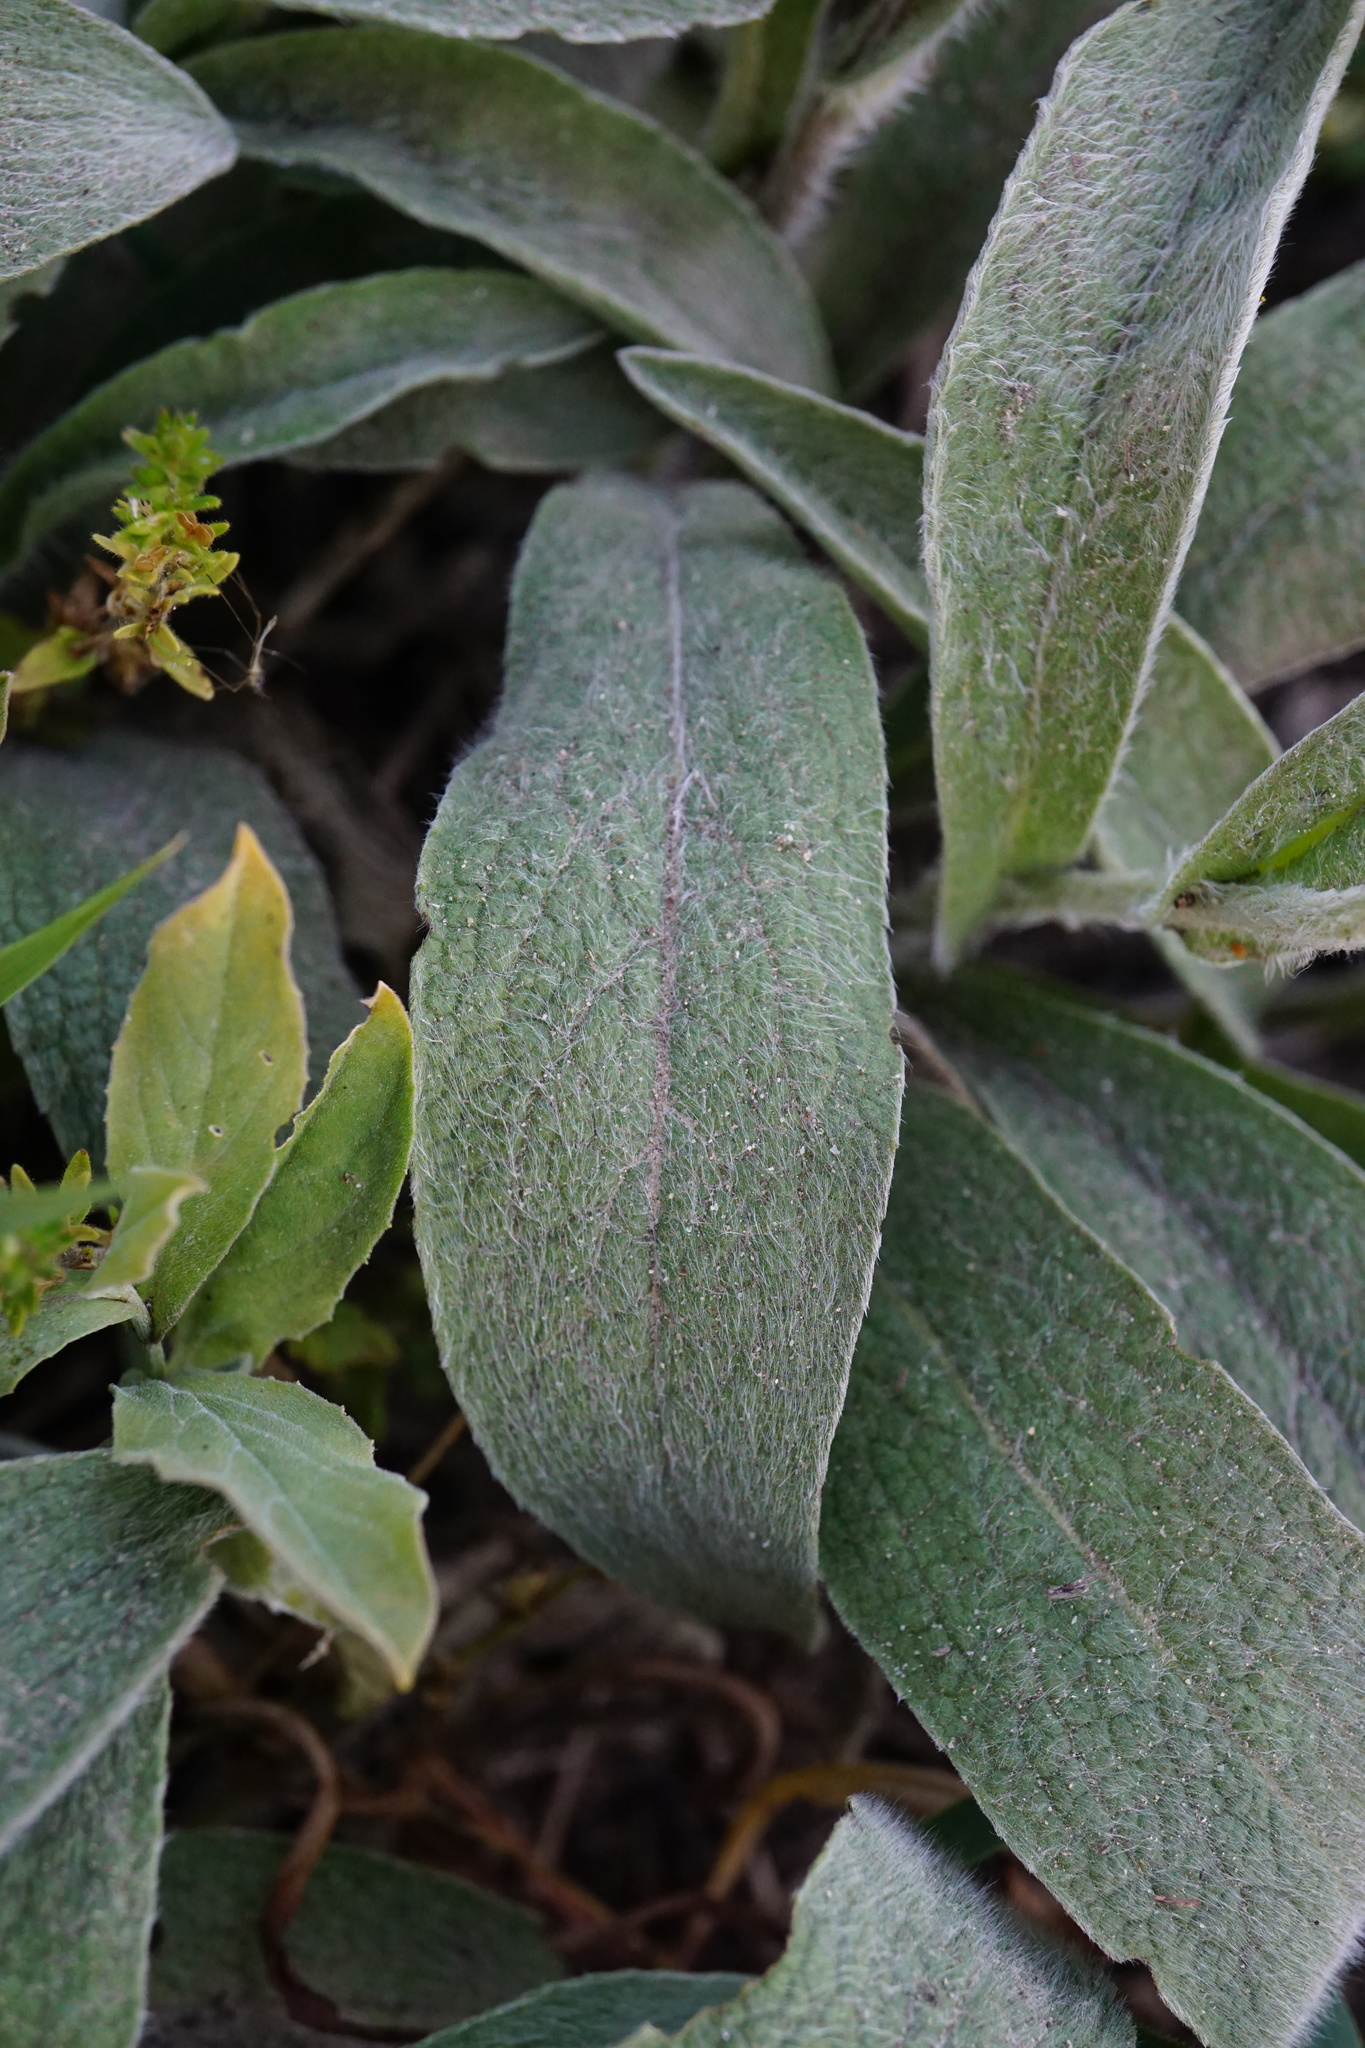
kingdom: Plantae
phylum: Tracheophyta
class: Magnoliopsida
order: Asterales
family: Asteraceae
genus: Pentanema
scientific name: Pentanema oculus-christi
